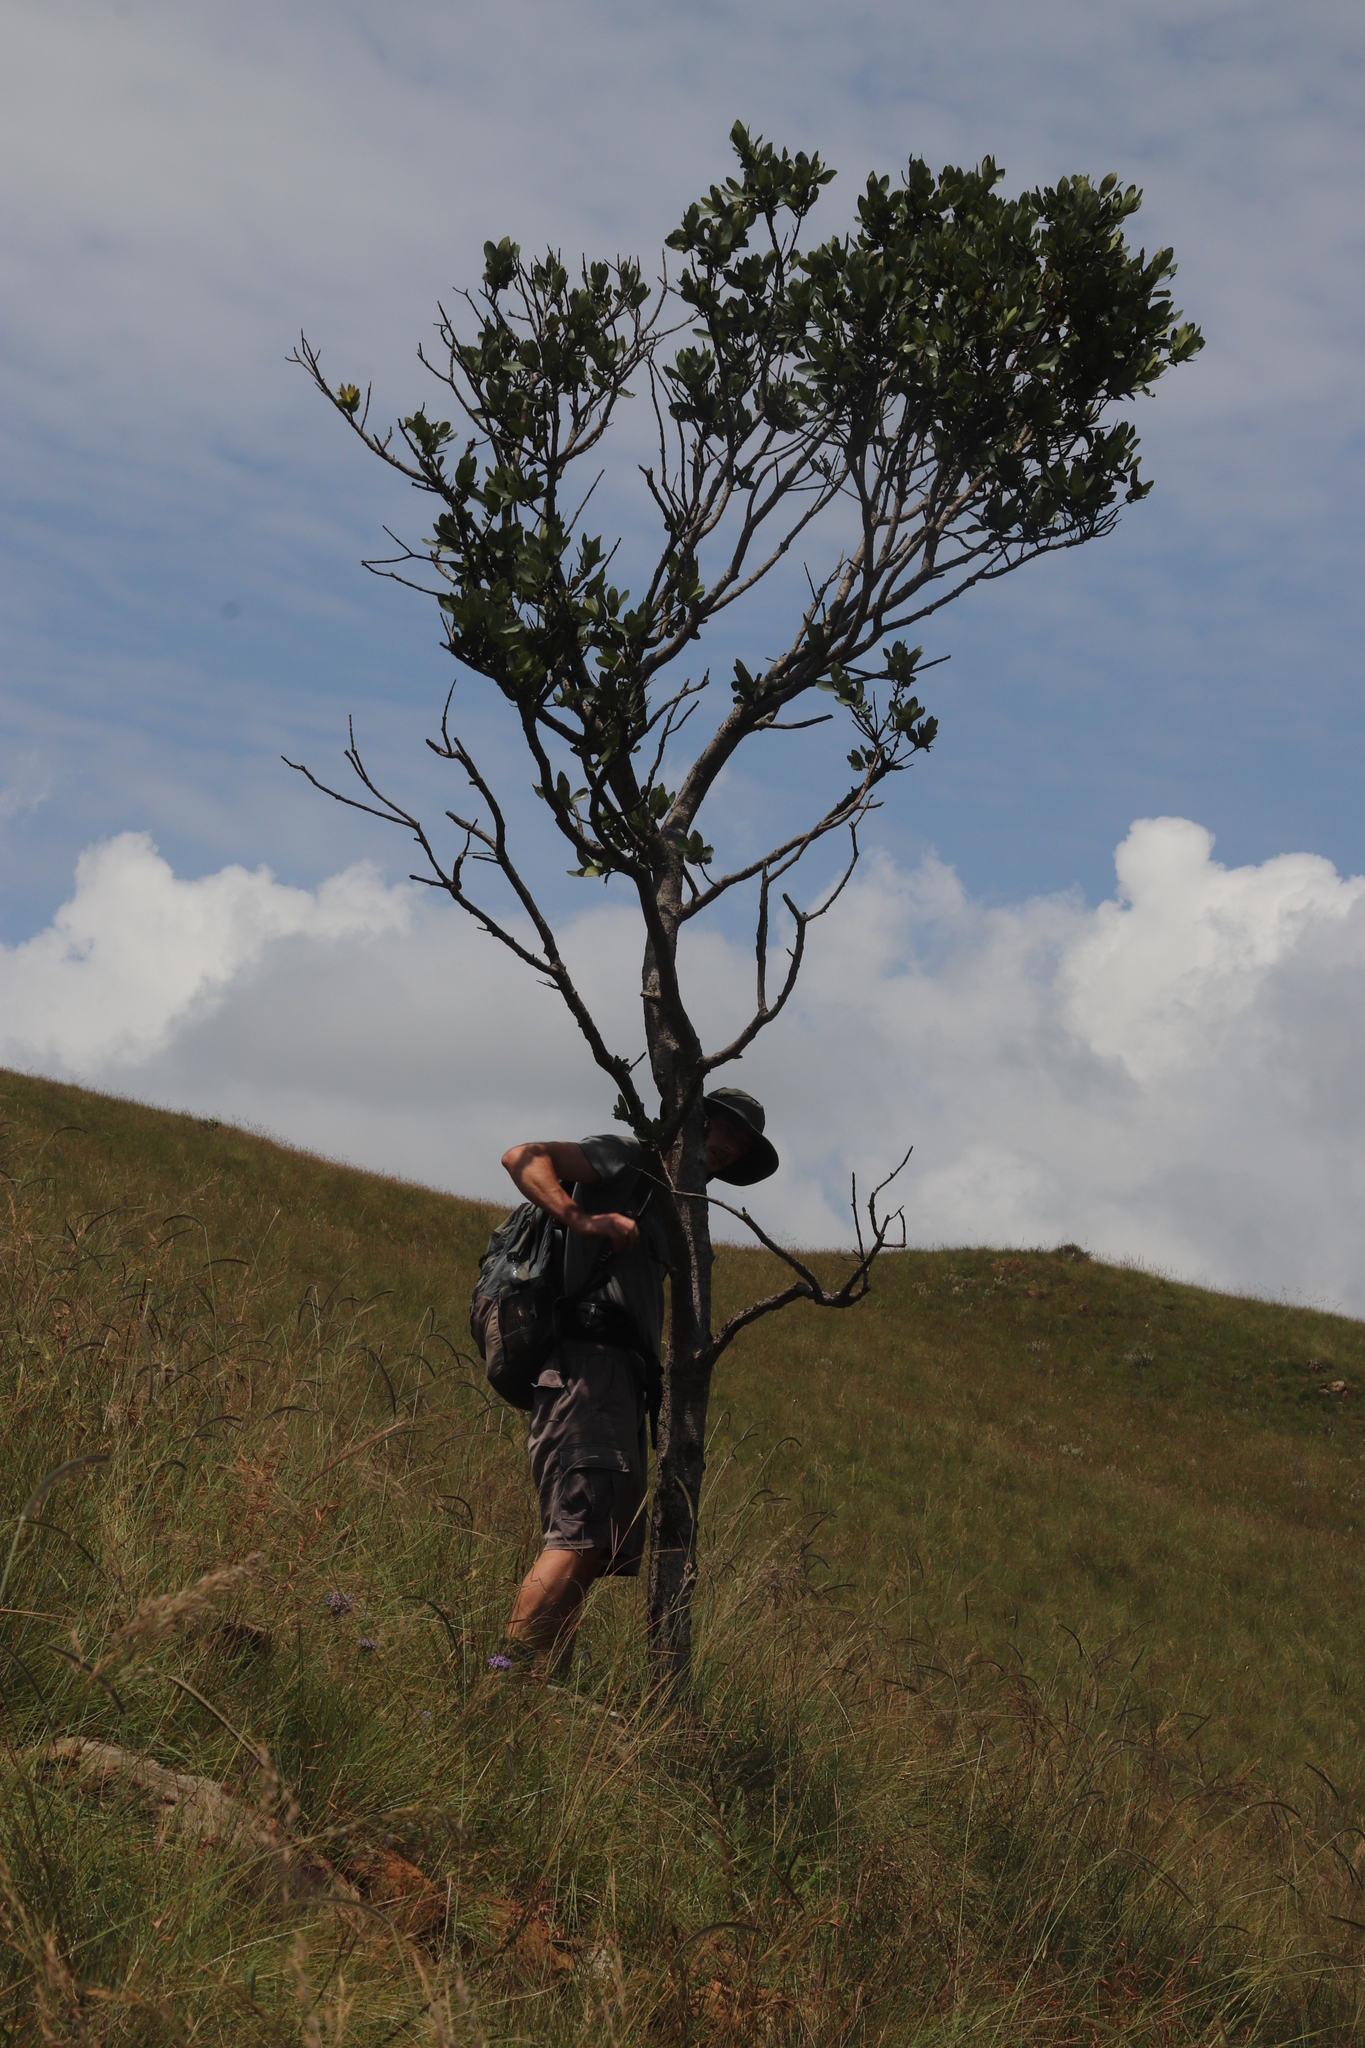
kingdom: Plantae
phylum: Tracheophyta
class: Magnoliopsida
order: Myrtales
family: Myrtaceae
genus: Syzygium
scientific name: Syzygium cordatum
